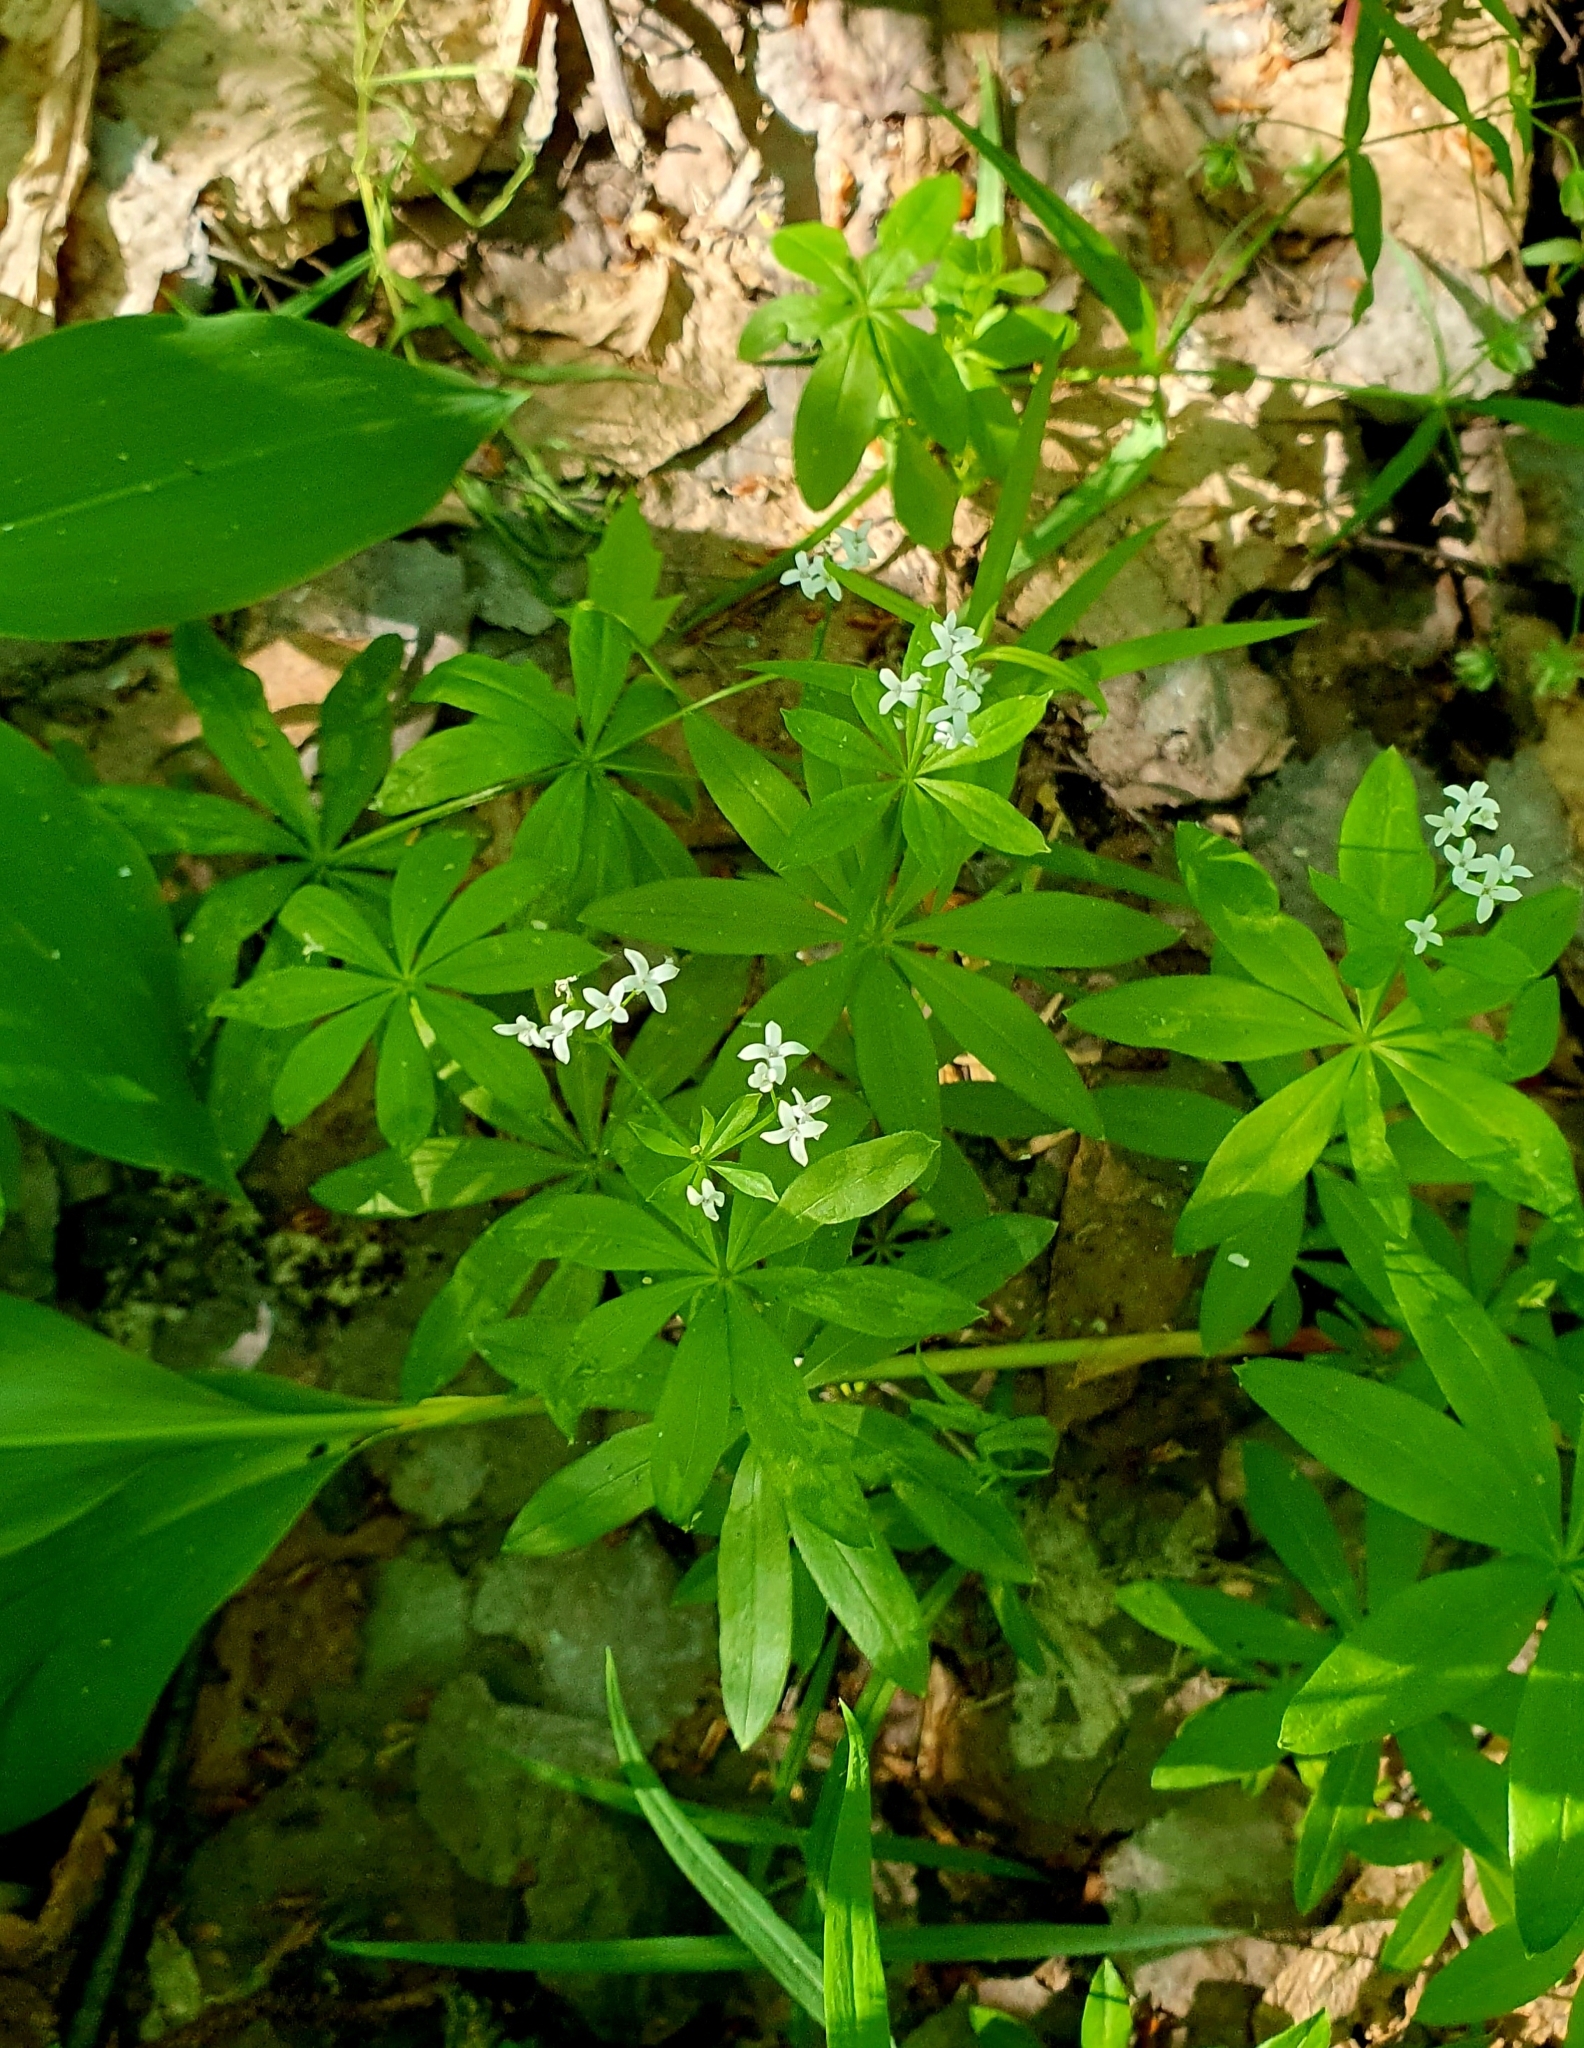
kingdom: Plantae
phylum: Tracheophyta
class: Magnoliopsida
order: Gentianales
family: Rubiaceae
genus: Galium
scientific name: Galium odoratum
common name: Sweet woodruff
